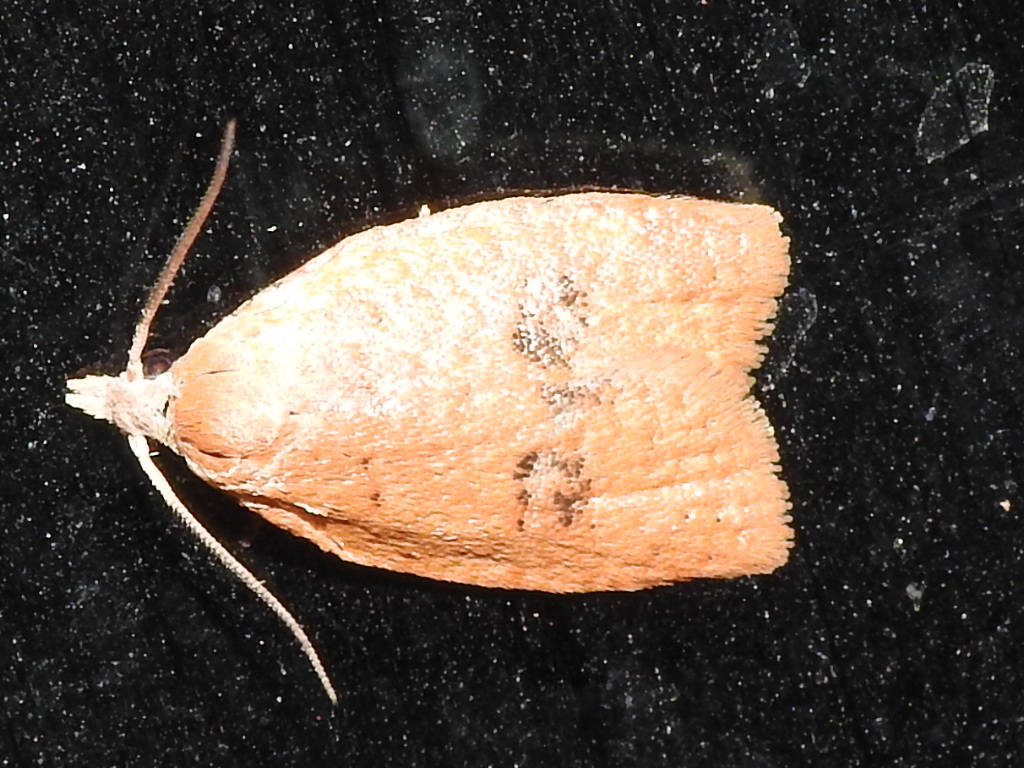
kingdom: Animalia
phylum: Arthropoda
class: Insecta
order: Lepidoptera
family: Tortricidae
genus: Sparganothoides
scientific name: Sparganothoides lentiginosana
